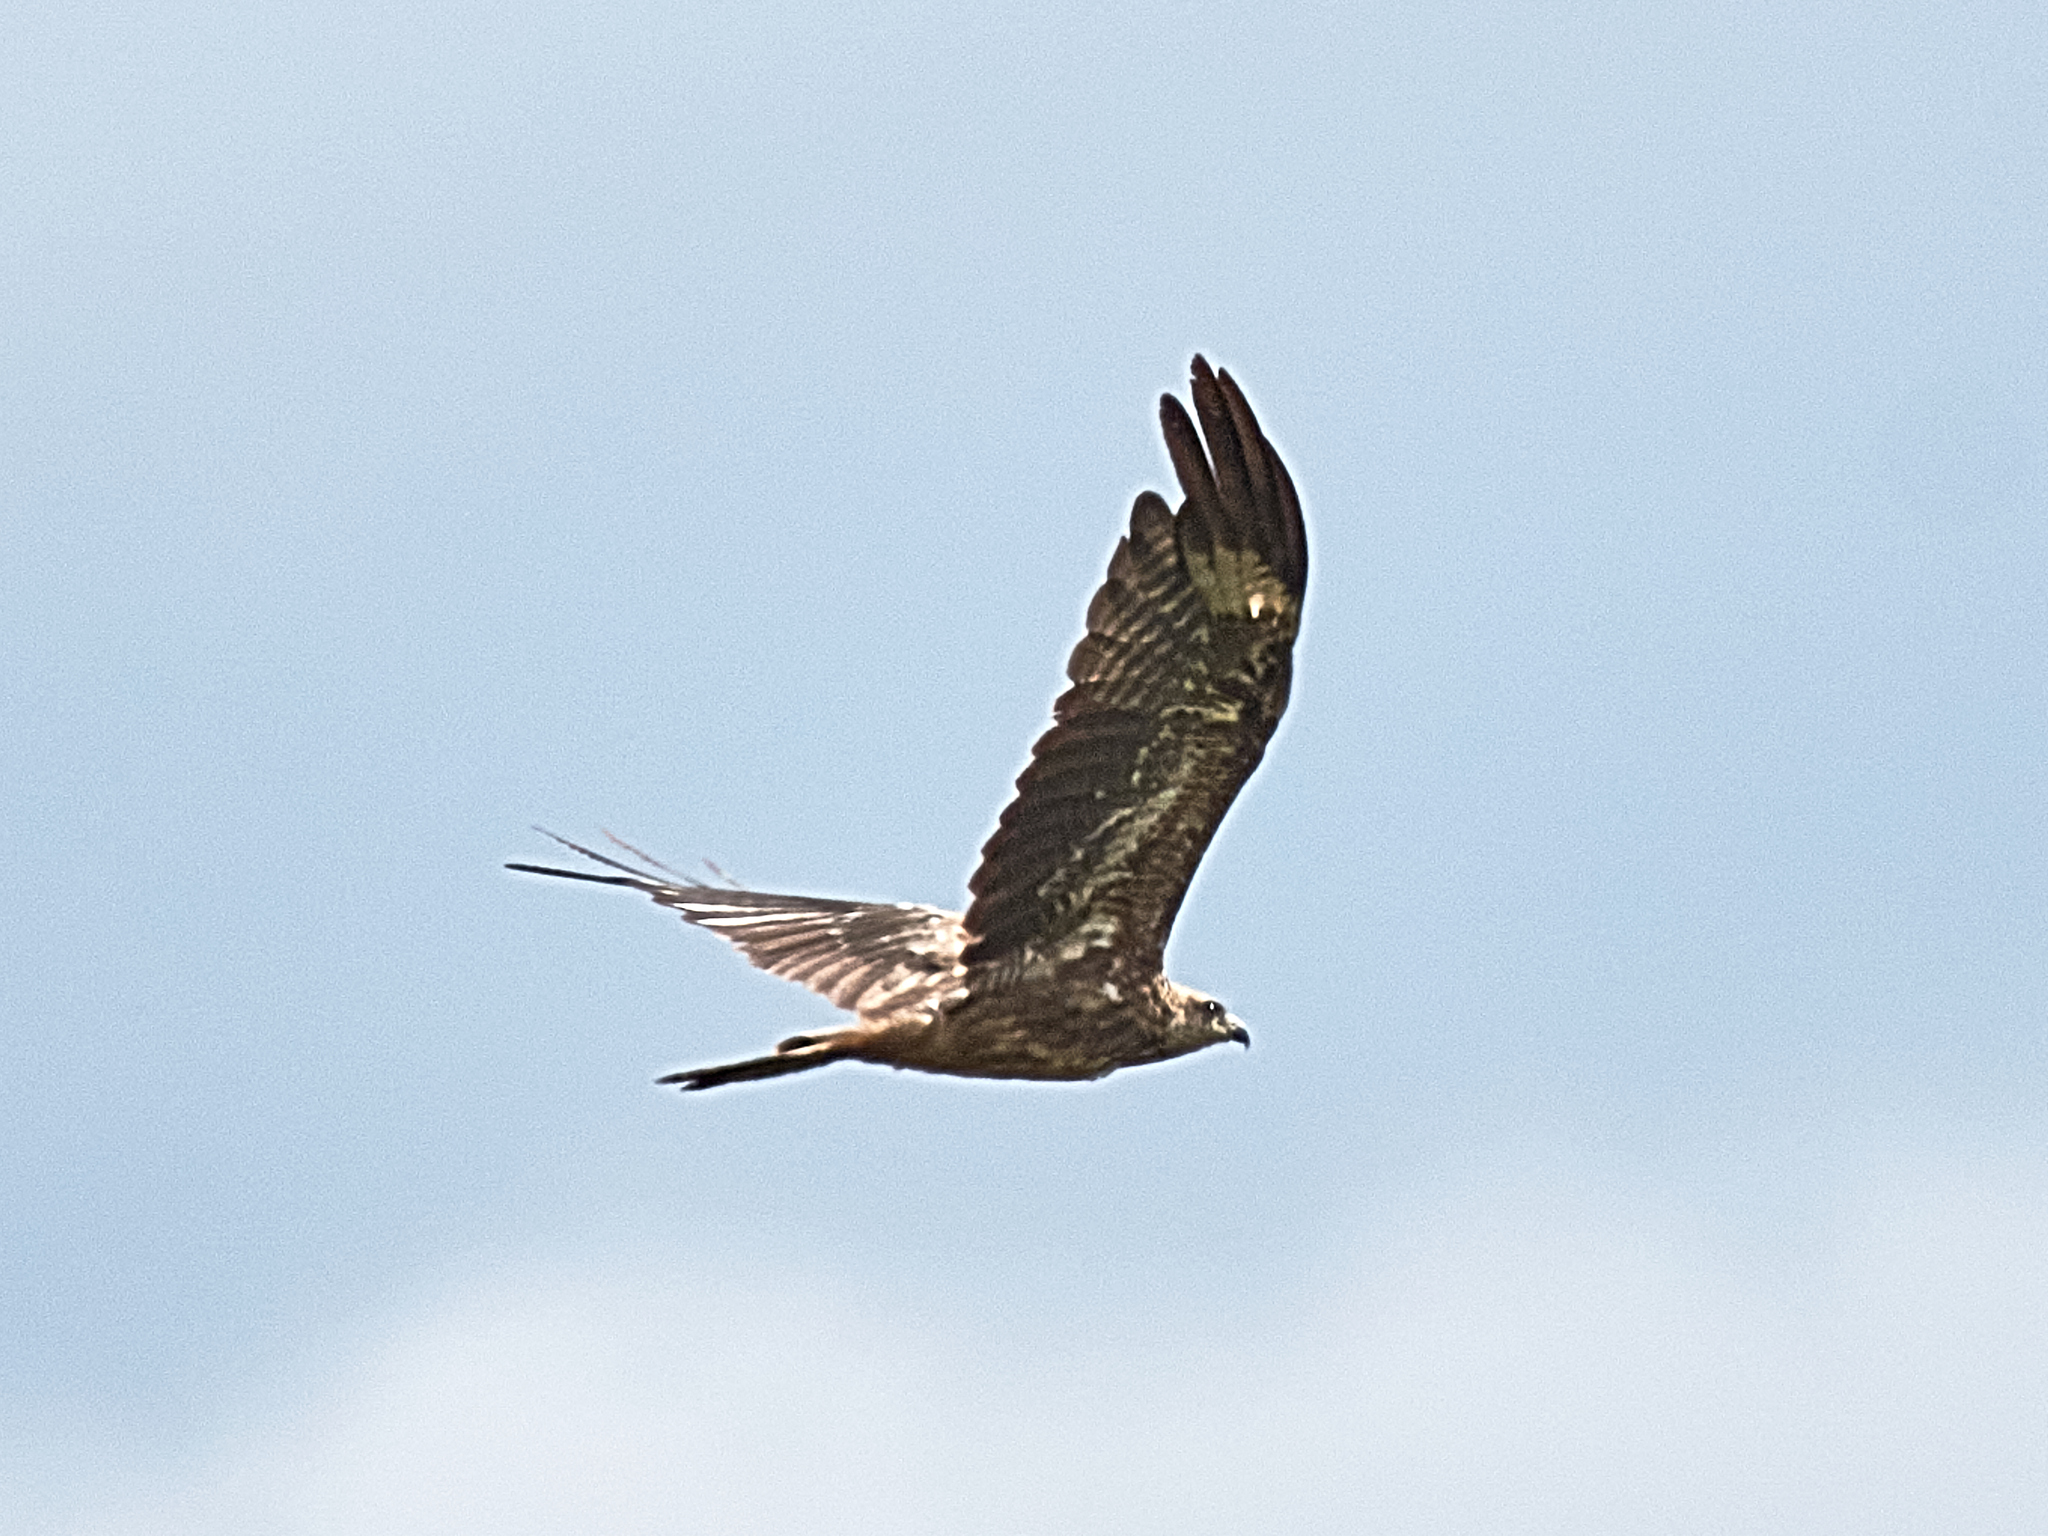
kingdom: Animalia
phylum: Chordata
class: Aves
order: Accipitriformes
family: Accipitridae
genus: Milvus
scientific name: Milvus migrans
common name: Black kite
